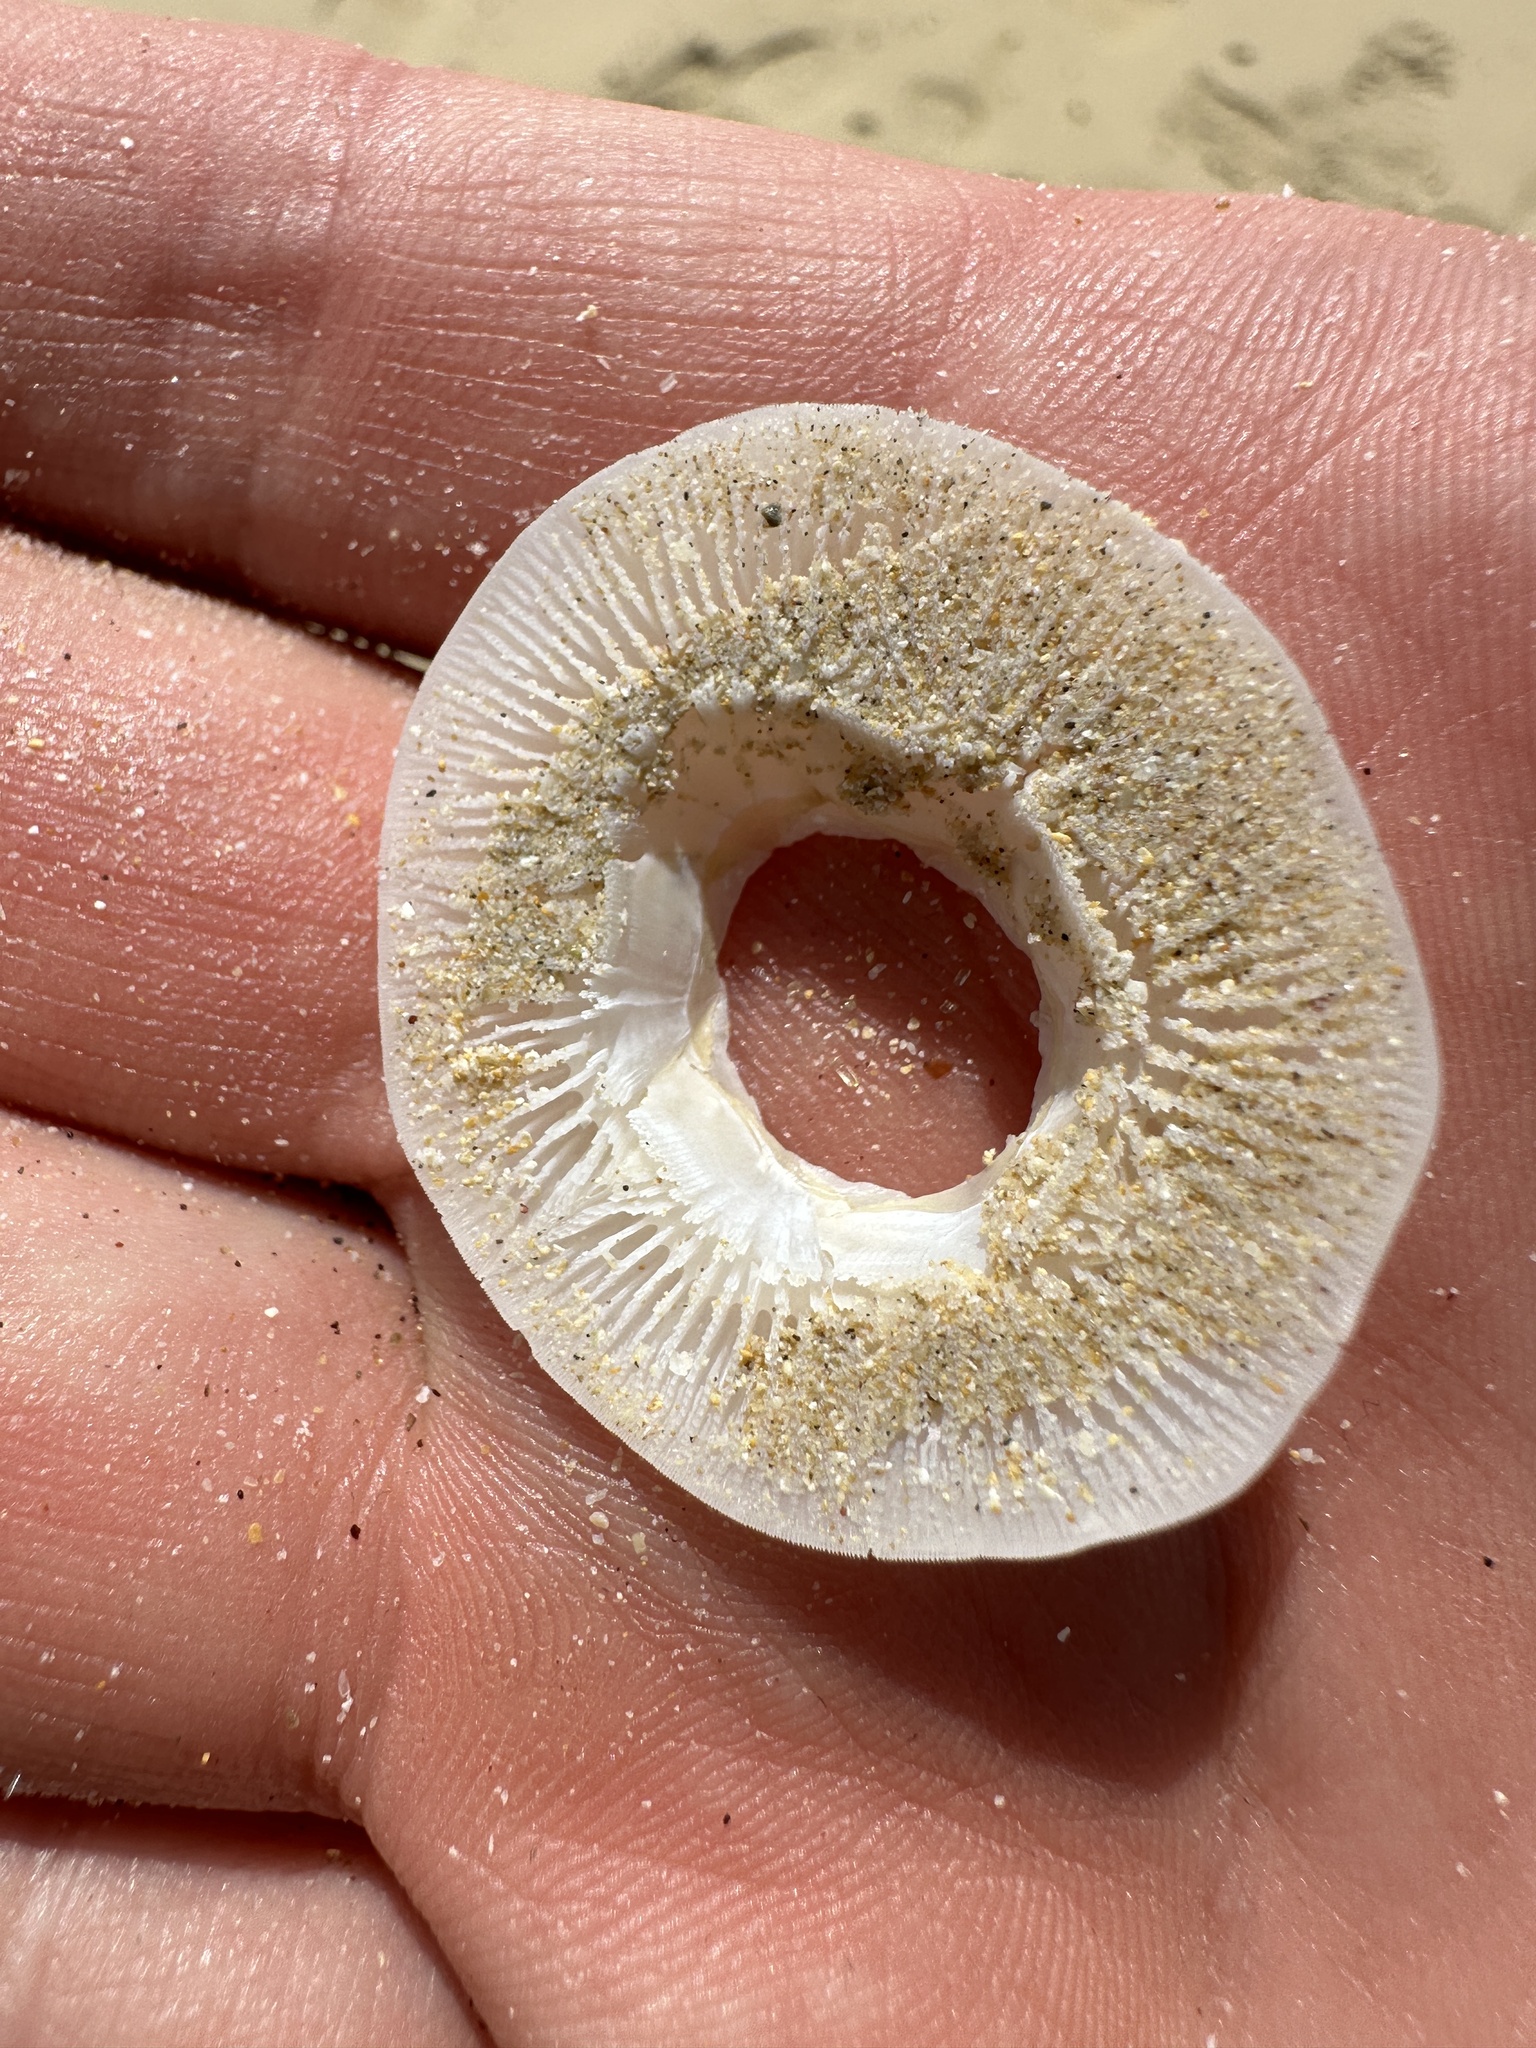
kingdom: Animalia
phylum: Arthropoda
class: Maxillopoda
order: Sessilia
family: Chelonibiidae
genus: Chelonibia
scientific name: Chelonibia testudinaria
